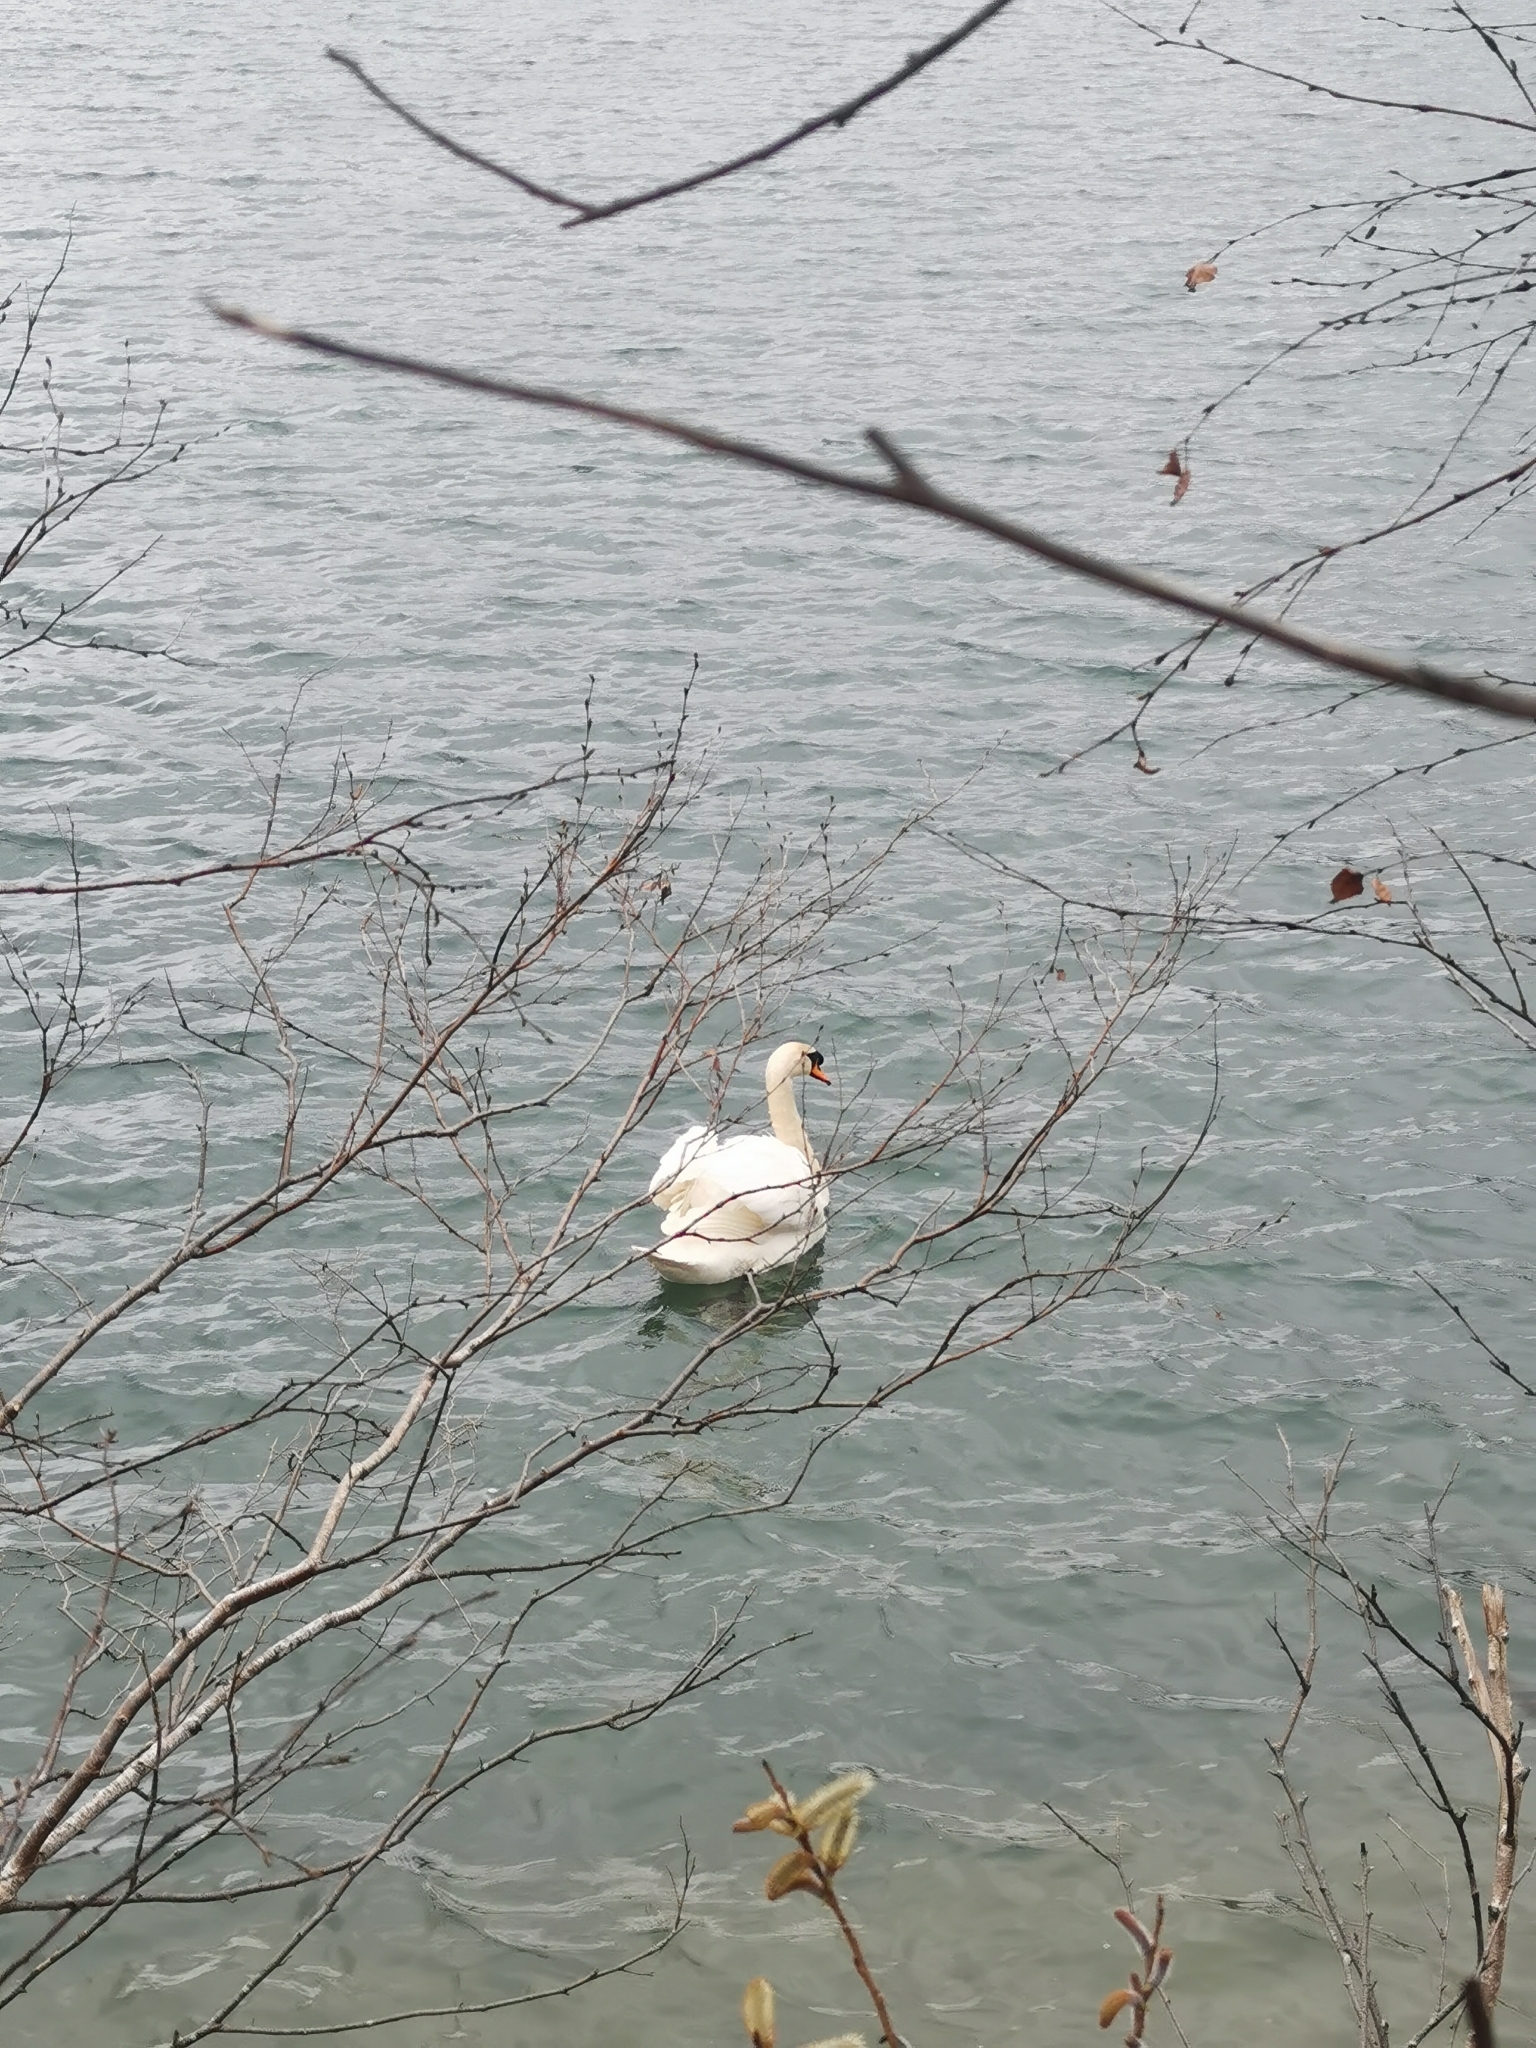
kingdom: Animalia
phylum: Chordata
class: Aves
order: Anseriformes
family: Anatidae
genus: Cygnus
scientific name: Cygnus olor
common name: Mute swan
